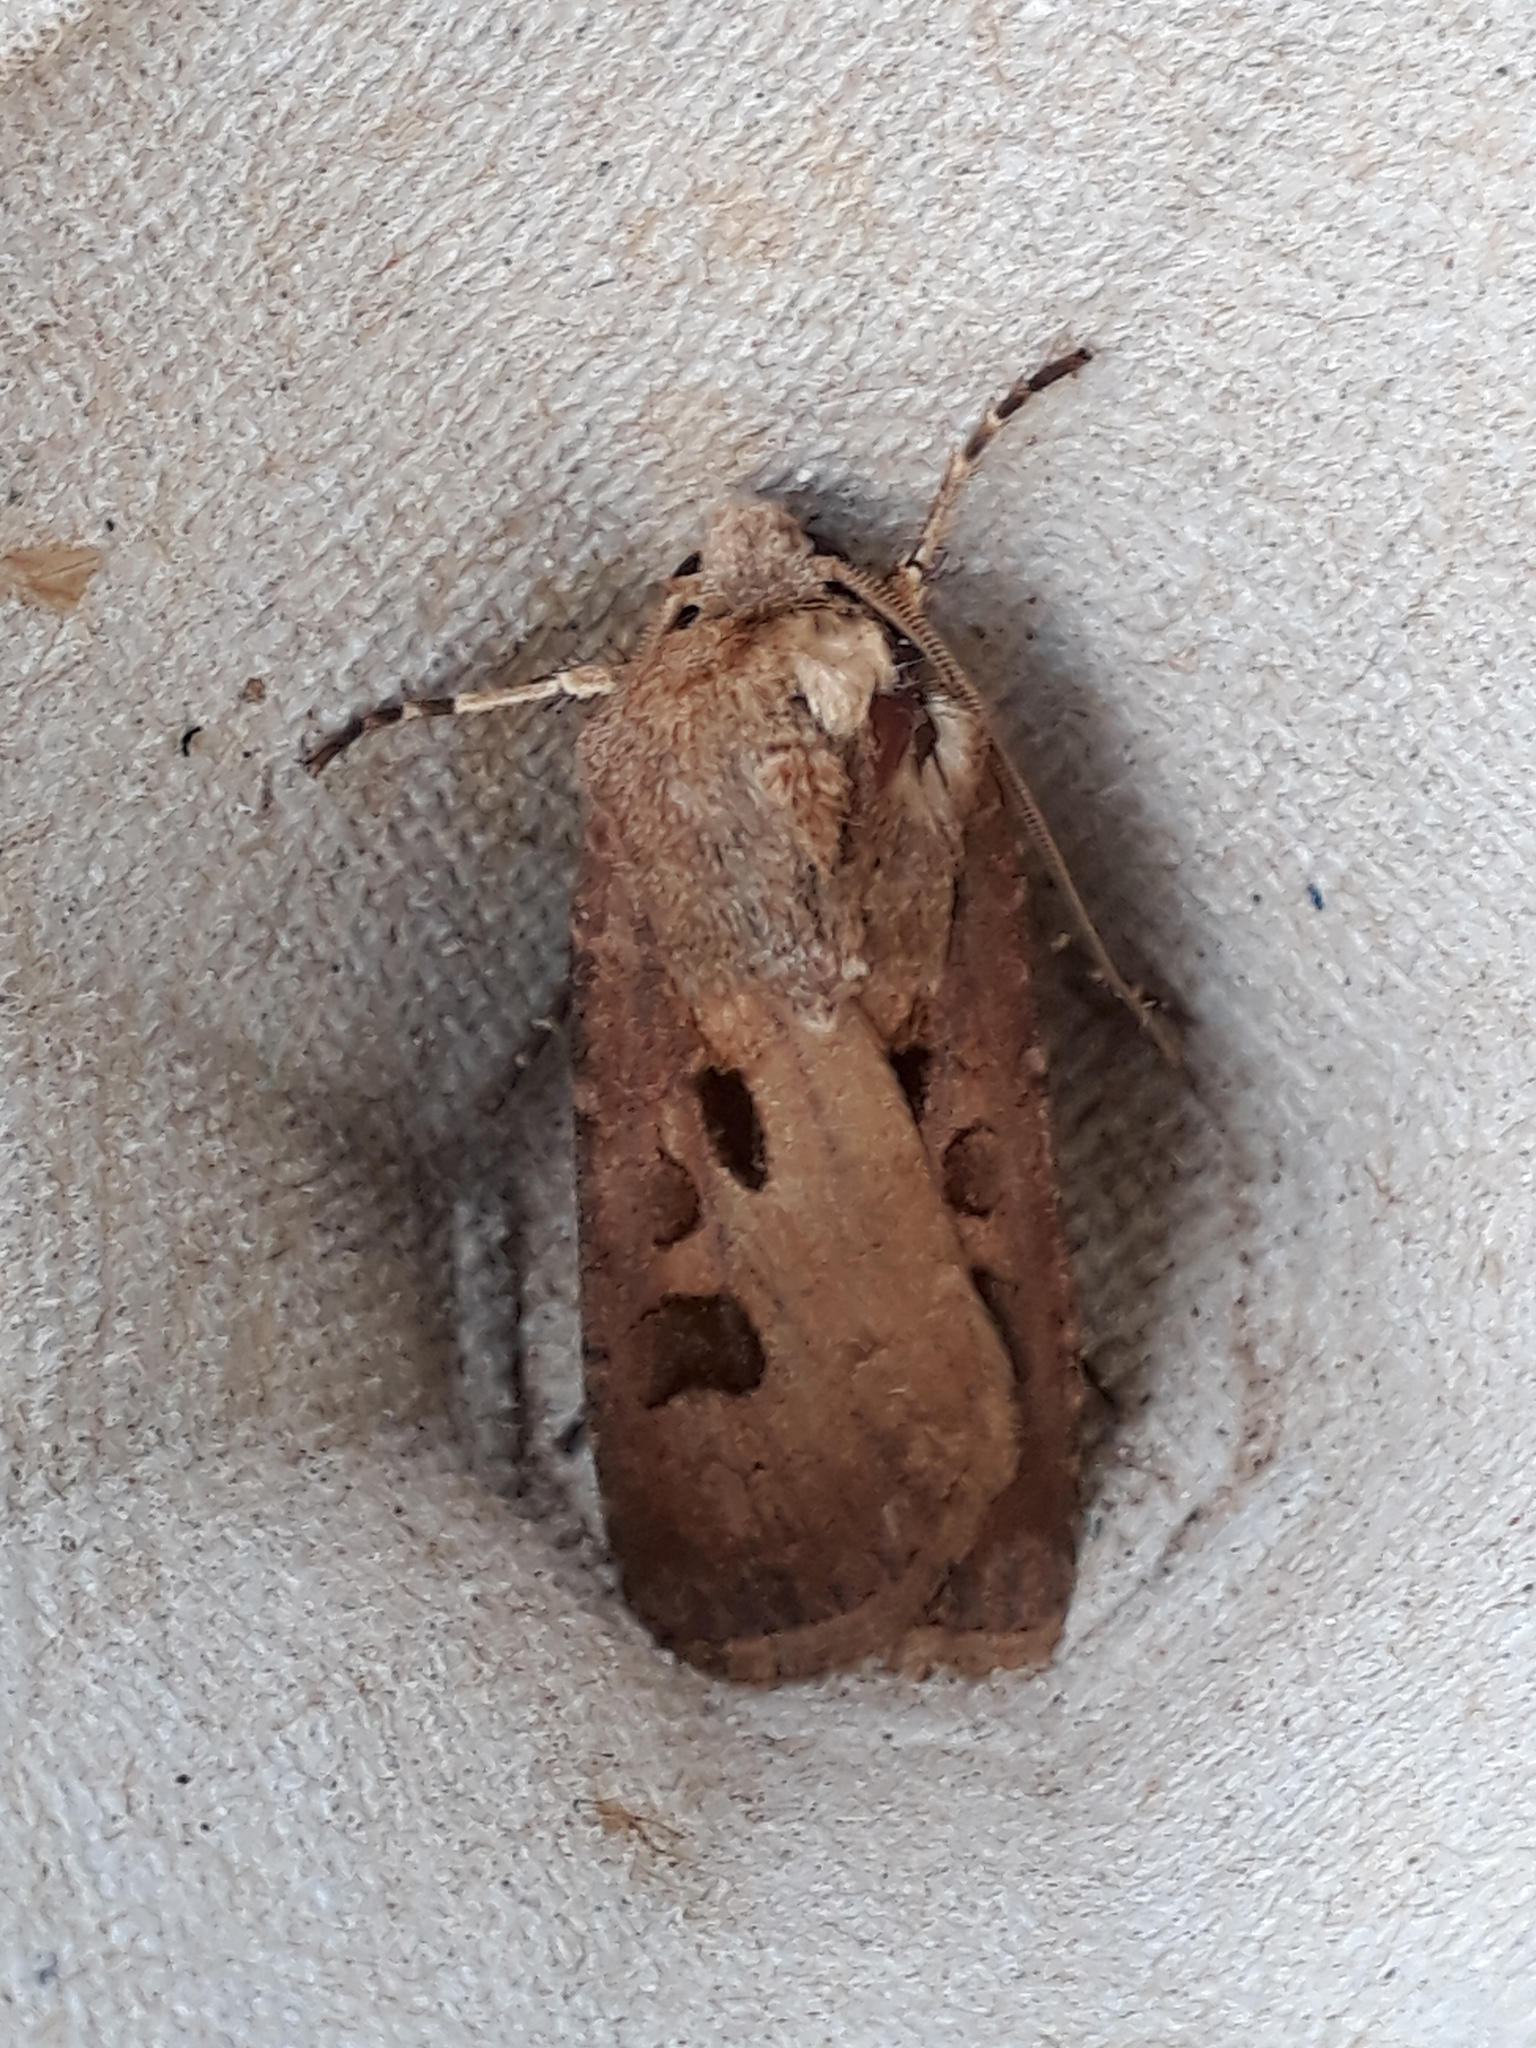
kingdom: Animalia
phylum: Arthropoda
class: Insecta
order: Lepidoptera
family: Noctuidae
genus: Agrotis
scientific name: Agrotis exclamationis
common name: Heart and dart
